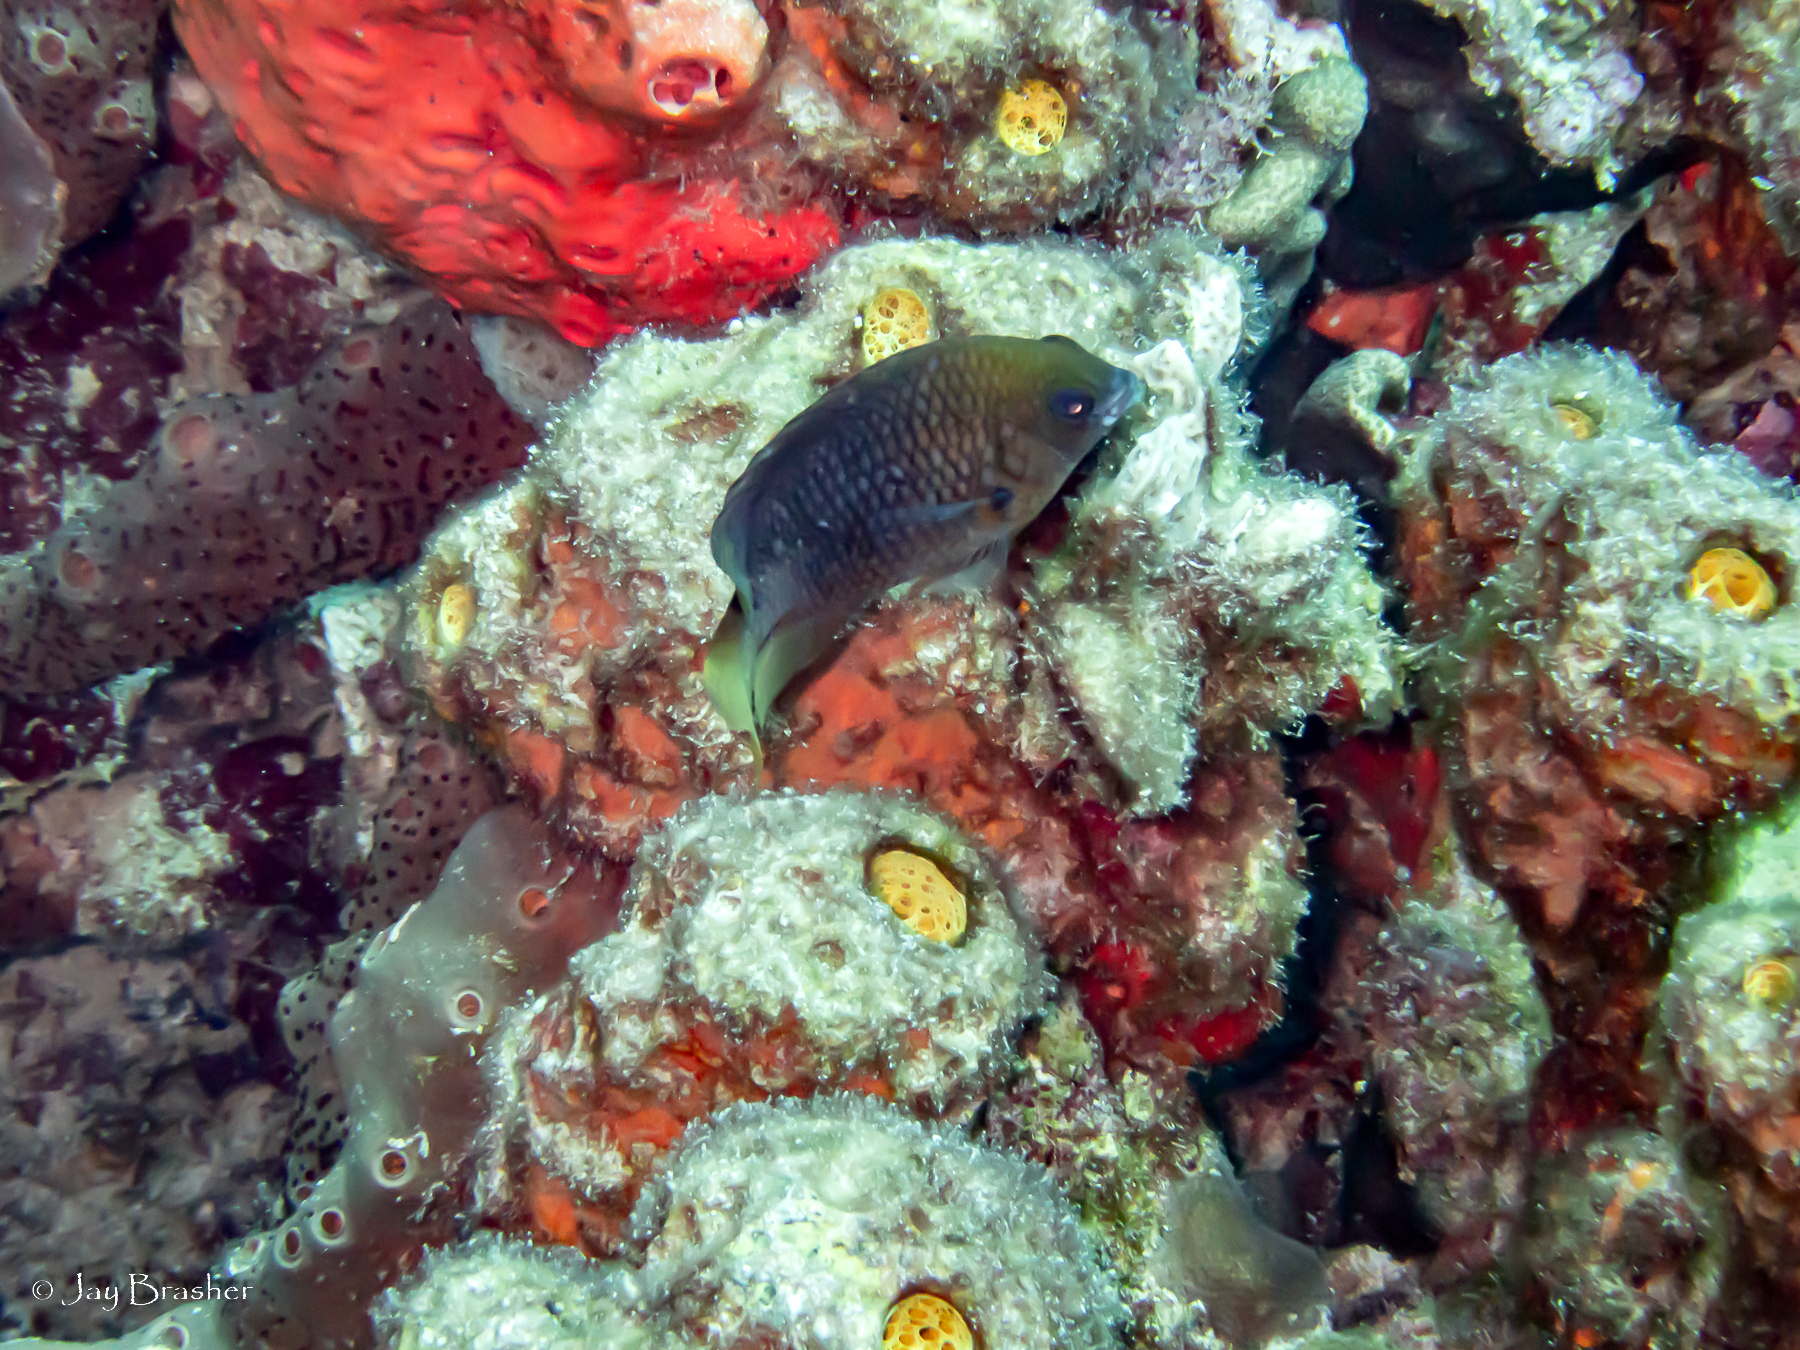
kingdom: Animalia
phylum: Chordata
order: Perciformes
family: Pomacentridae
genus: Stegastes
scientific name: Stegastes planifrons
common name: Threespot damselfish
